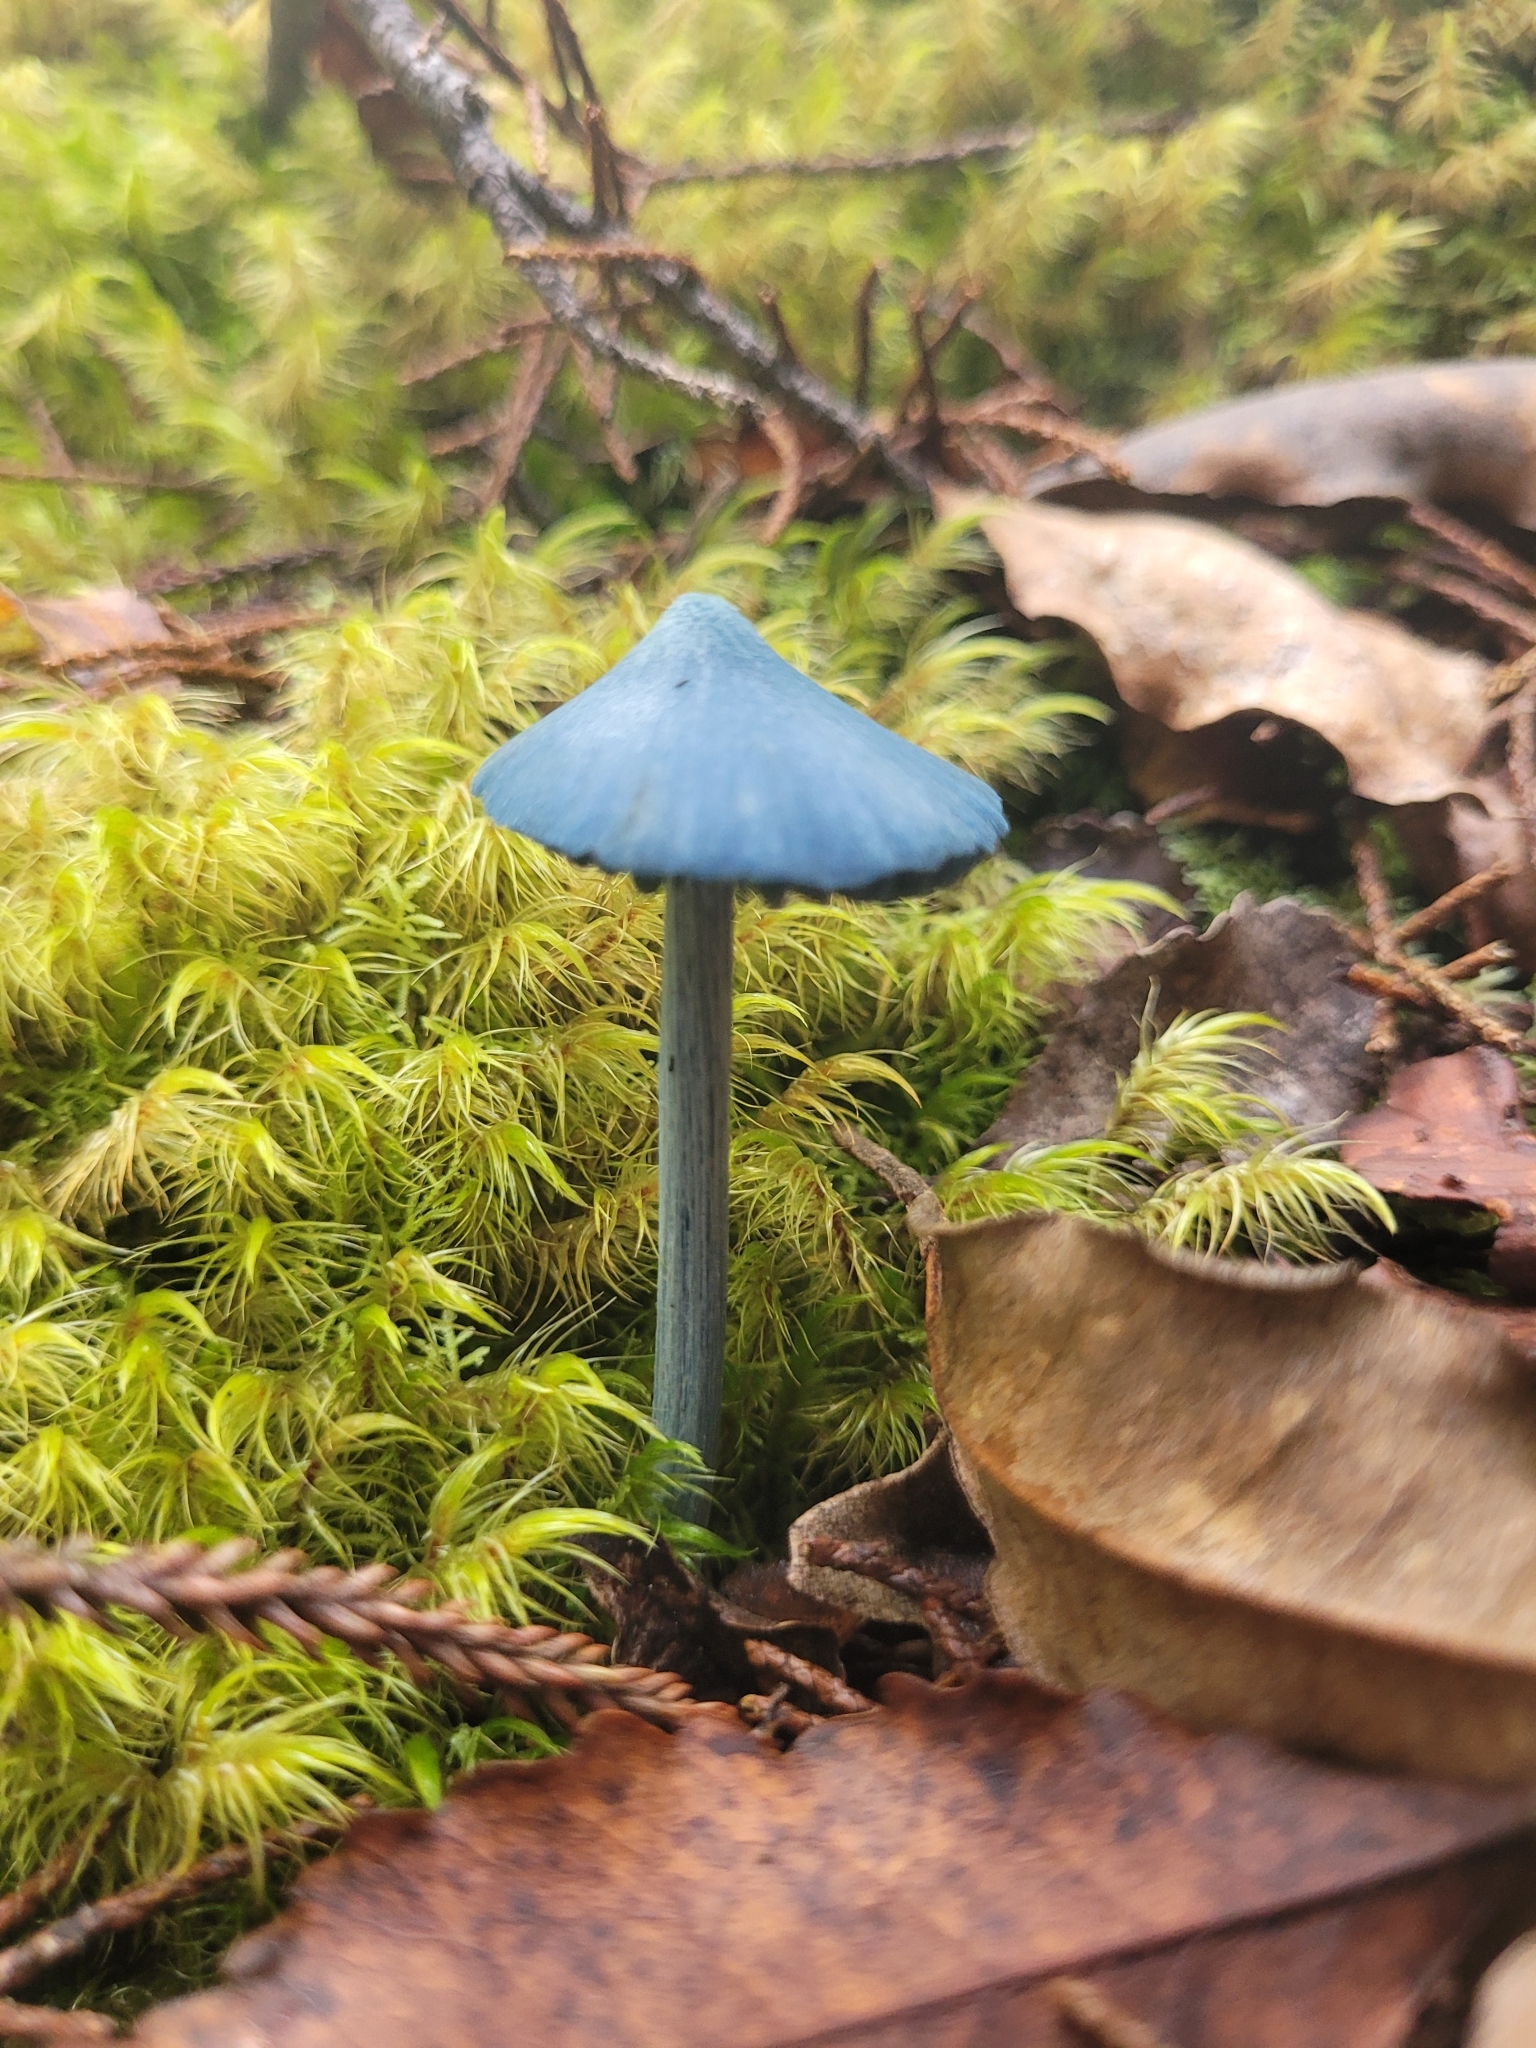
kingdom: Fungi
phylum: Basidiomycota
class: Agaricomycetes
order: Agaricales
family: Entolomataceae
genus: Entoloma
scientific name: Entoloma hochstetteri
